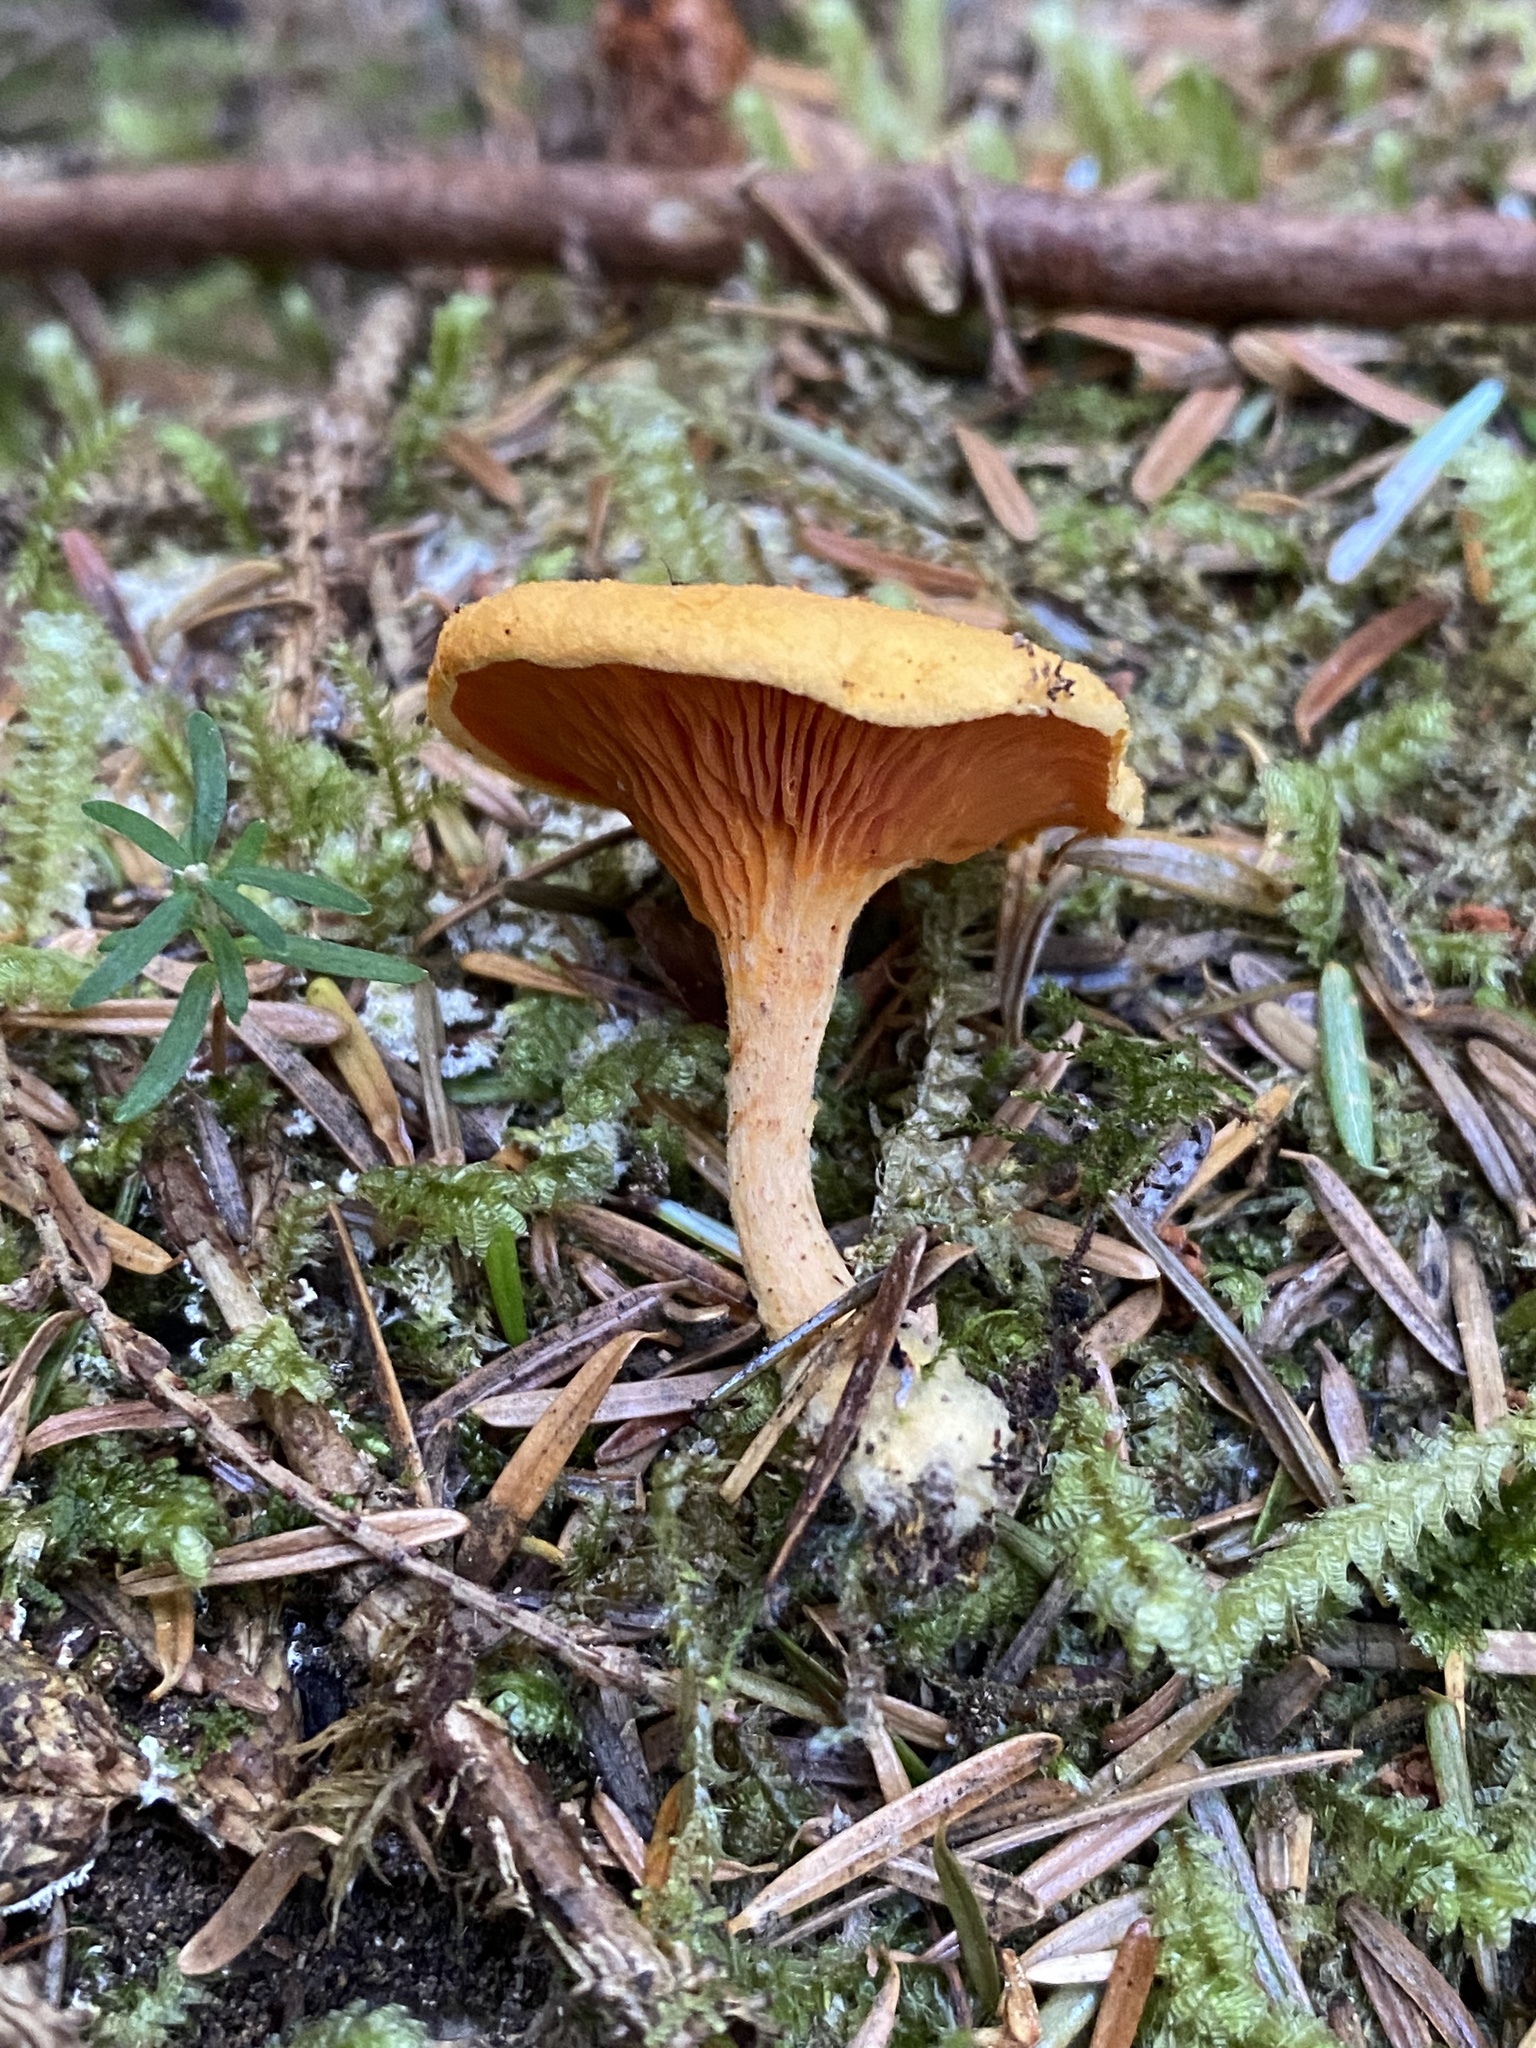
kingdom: Fungi
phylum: Basidiomycota
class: Agaricomycetes
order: Boletales
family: Hygrophoropsidaceae
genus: Hygrophoropsis
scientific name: Hygrophoropsis aurantiaca
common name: False chanterelle
